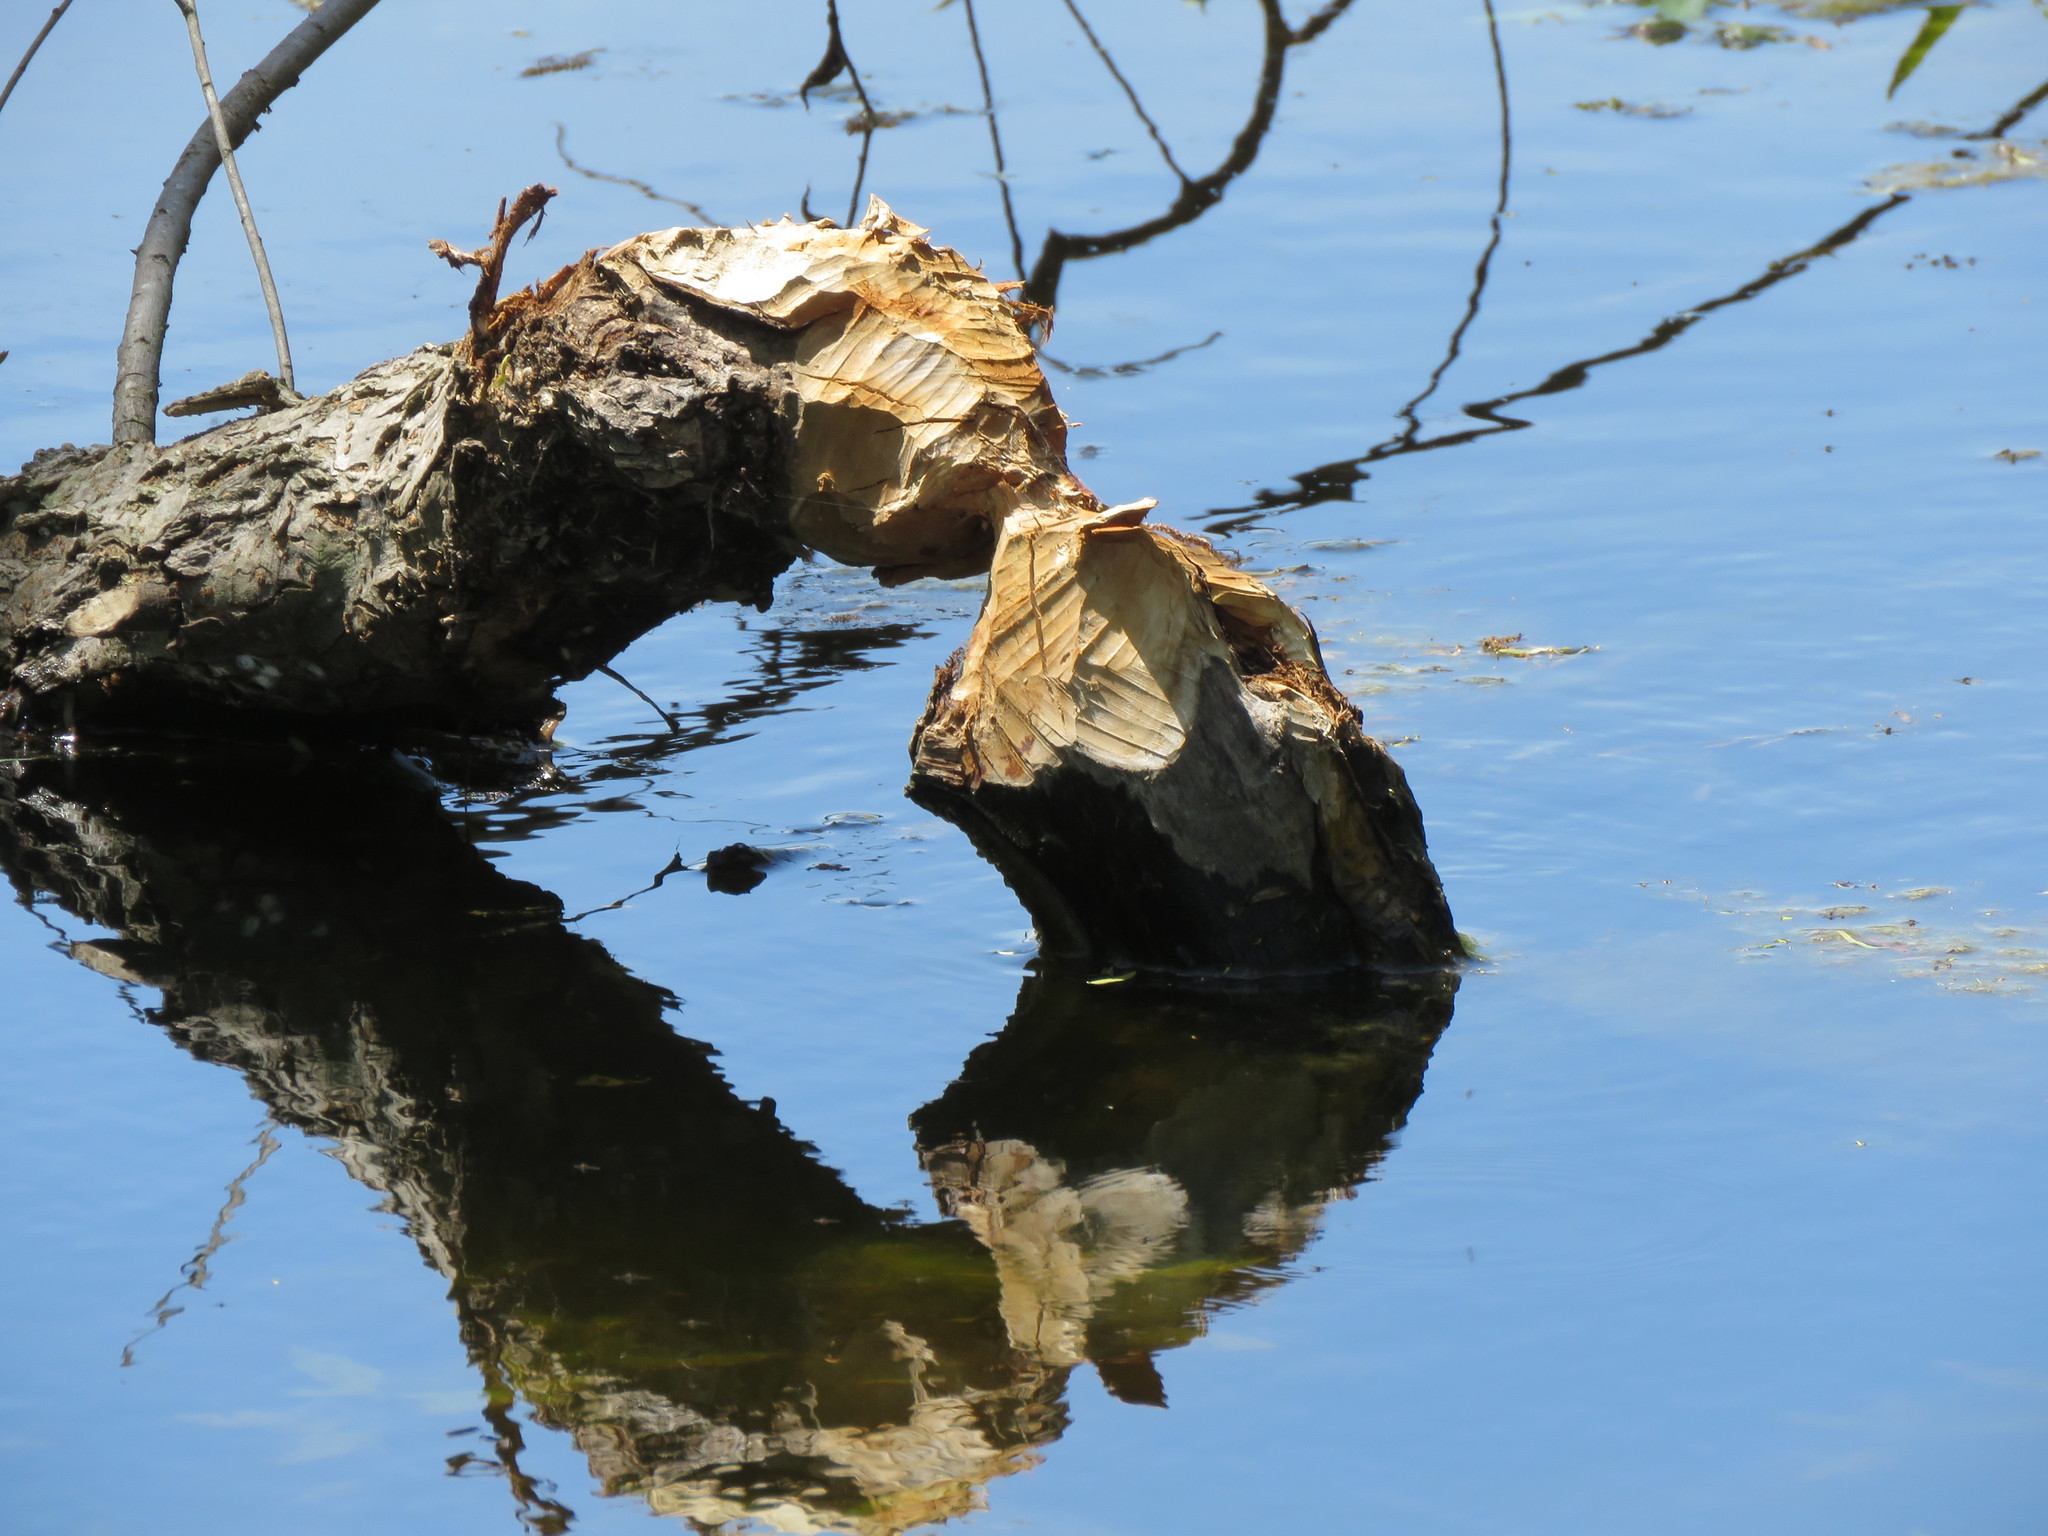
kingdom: Animalia
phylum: Chordata
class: Mammalia
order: Rodentia
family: Castoridae
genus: Castor
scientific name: Castor canadensis
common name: American beaver
